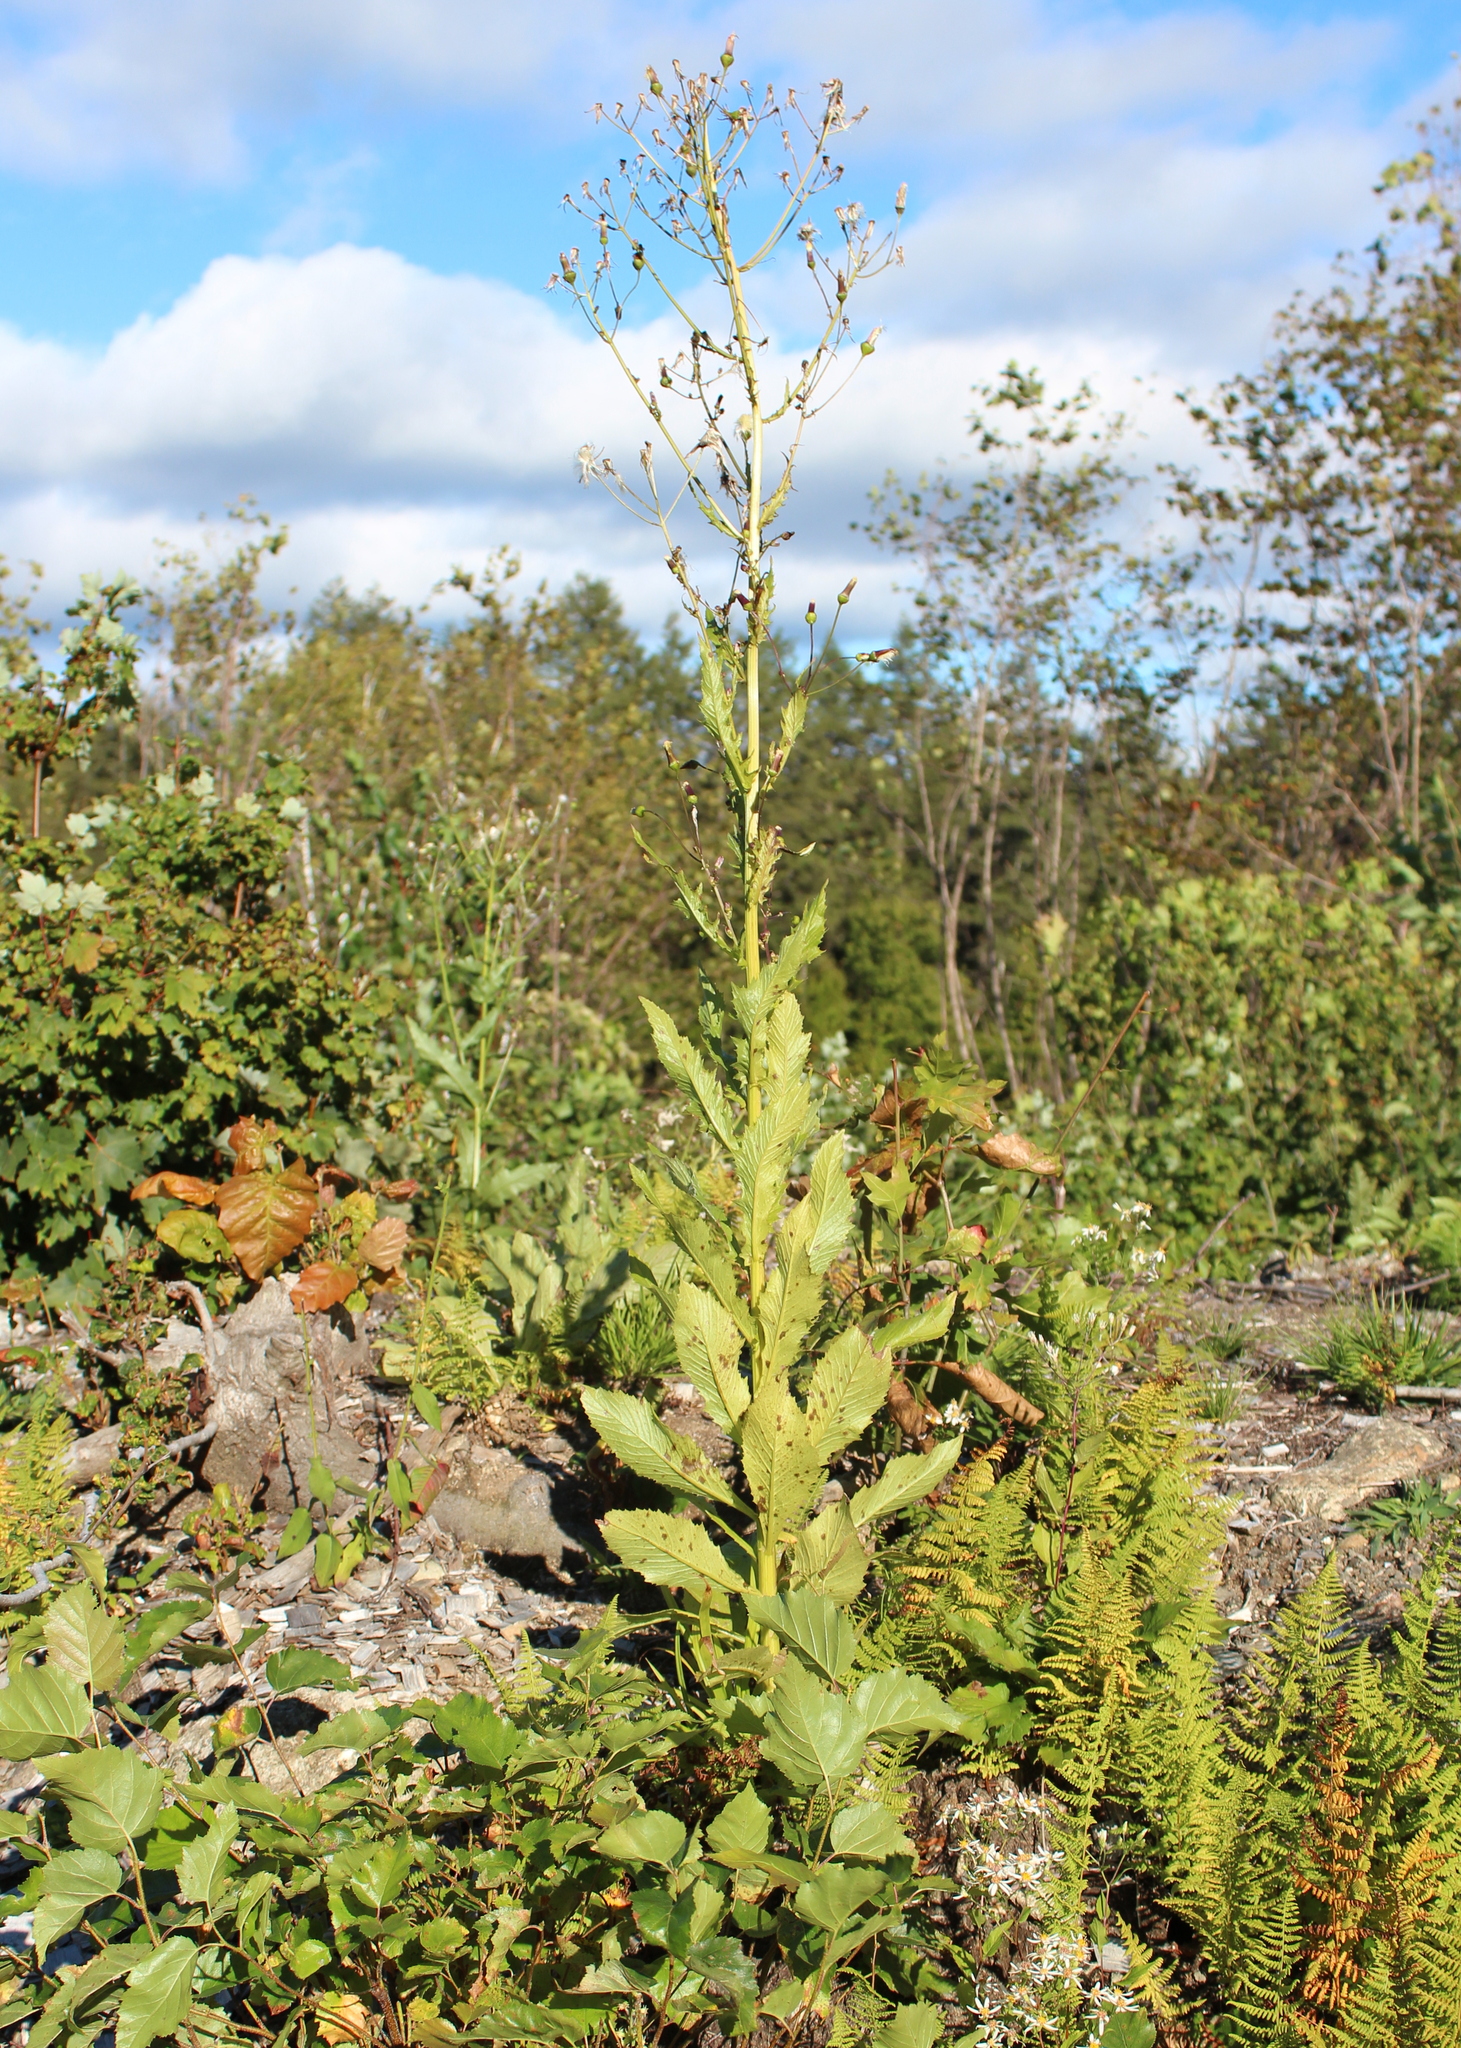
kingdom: Plantae
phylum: Tracheophyta
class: Magnoliopsida
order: Asterales
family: Asteraceae
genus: Erechtites
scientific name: Erechtites hieraciifolius
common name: American burnweed
